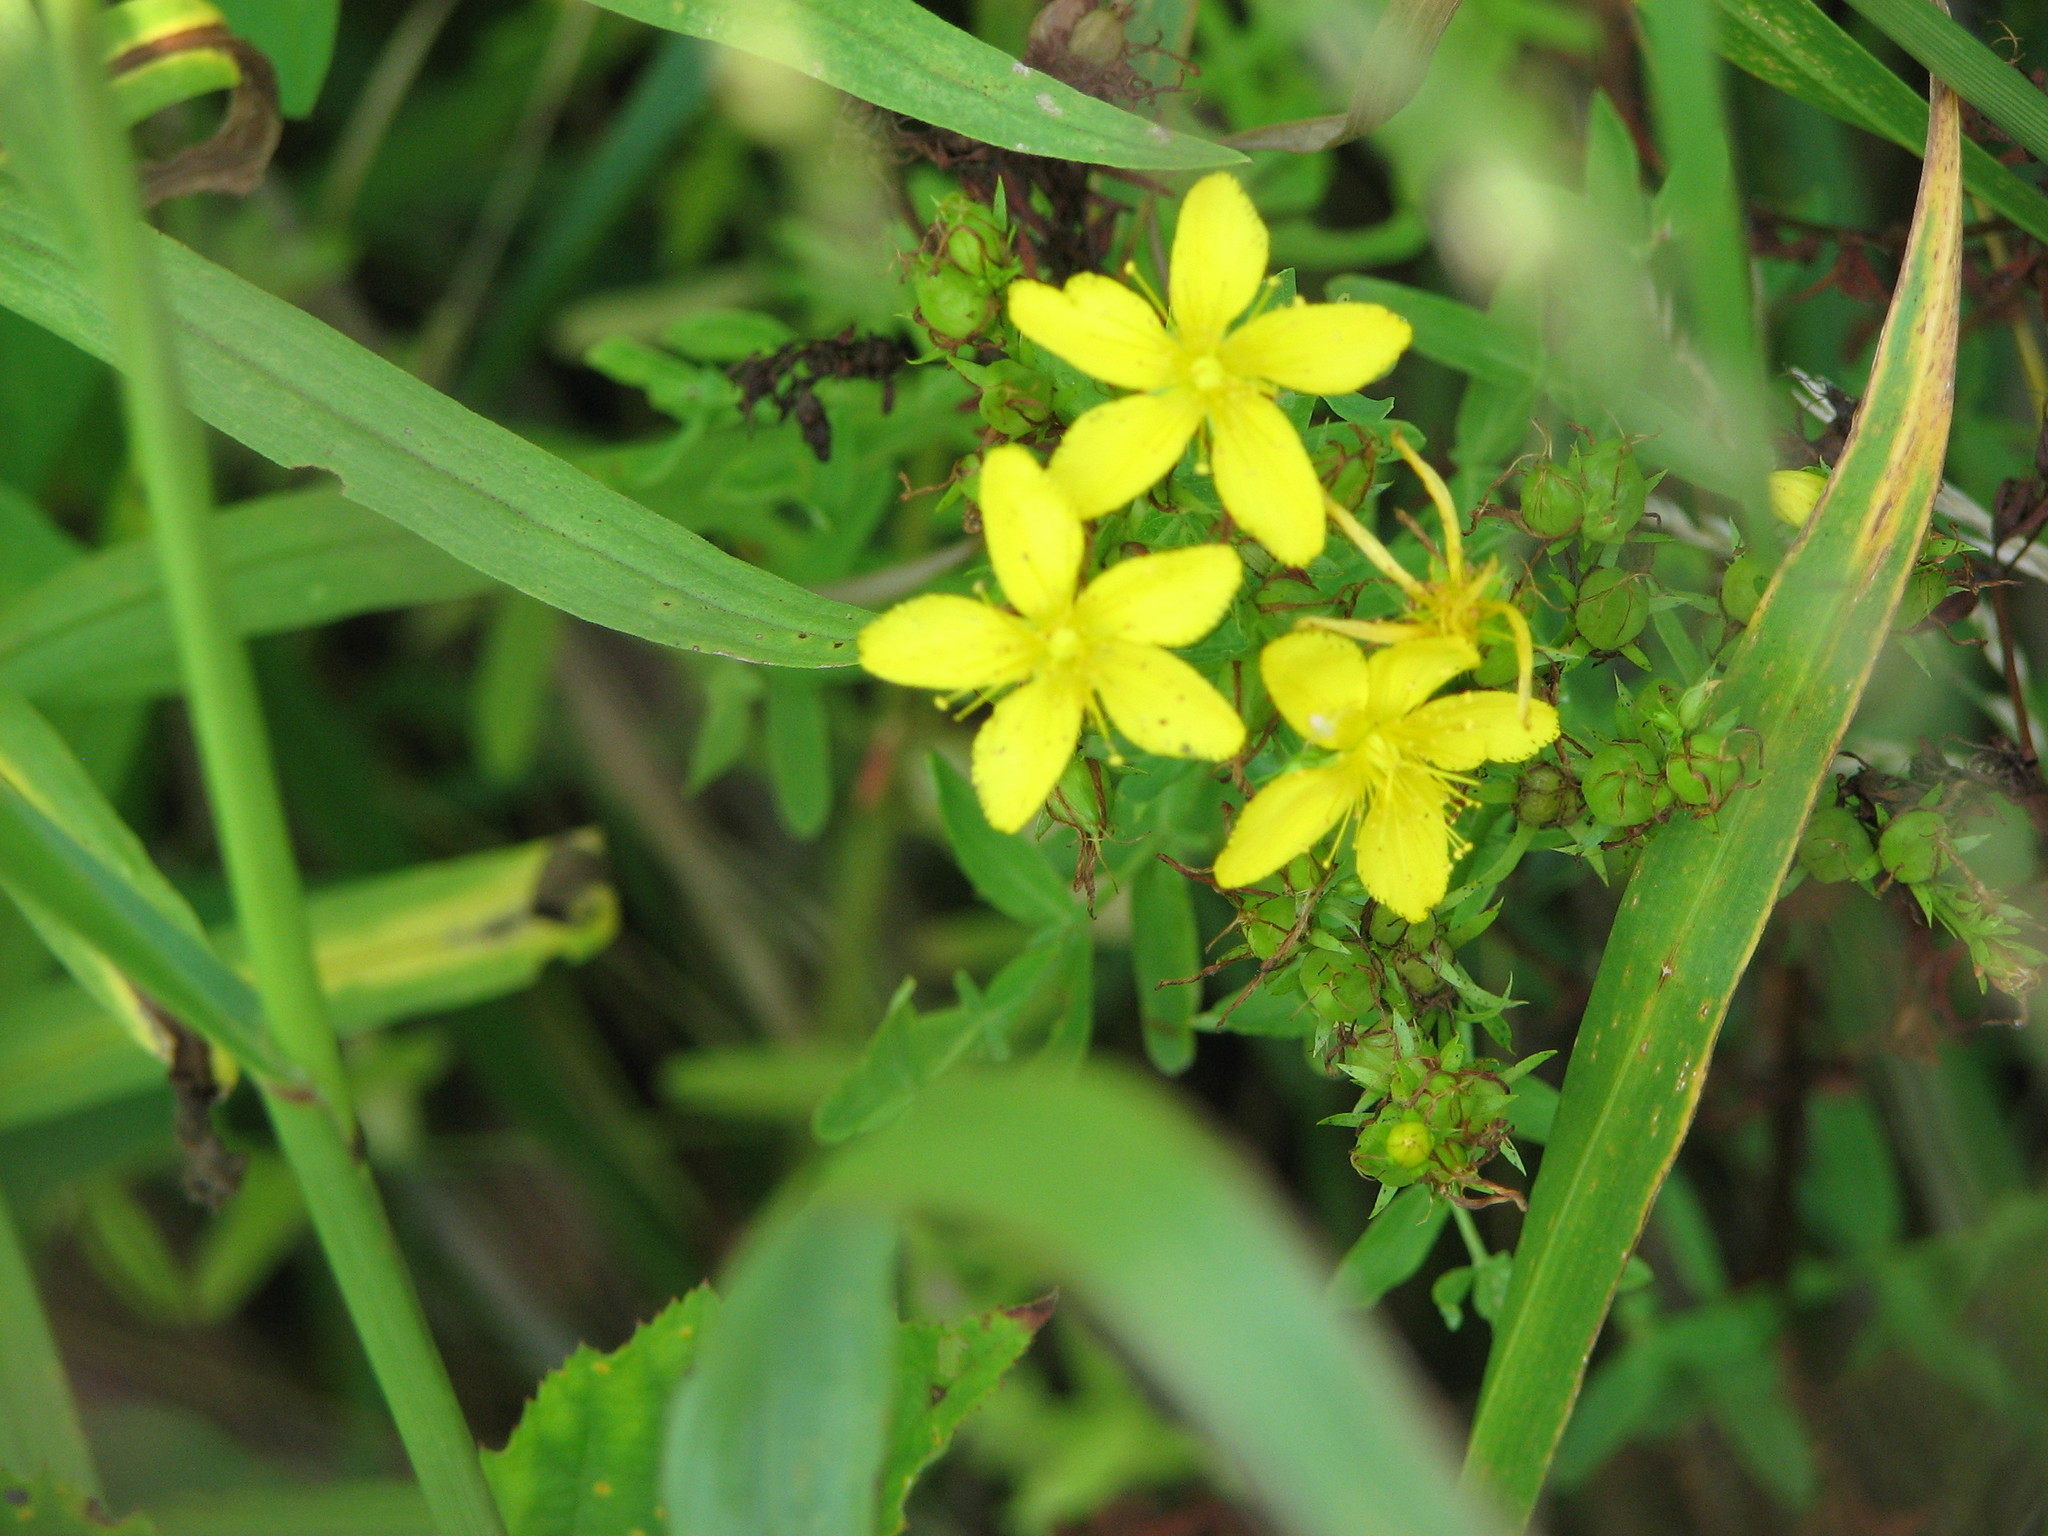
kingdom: Plantae
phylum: Tracheophyta
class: Magnoliopsida
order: Malpighiales
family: Hypericaceae
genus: Hypericum
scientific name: Hypericum perforatum
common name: Common st. johnswort
